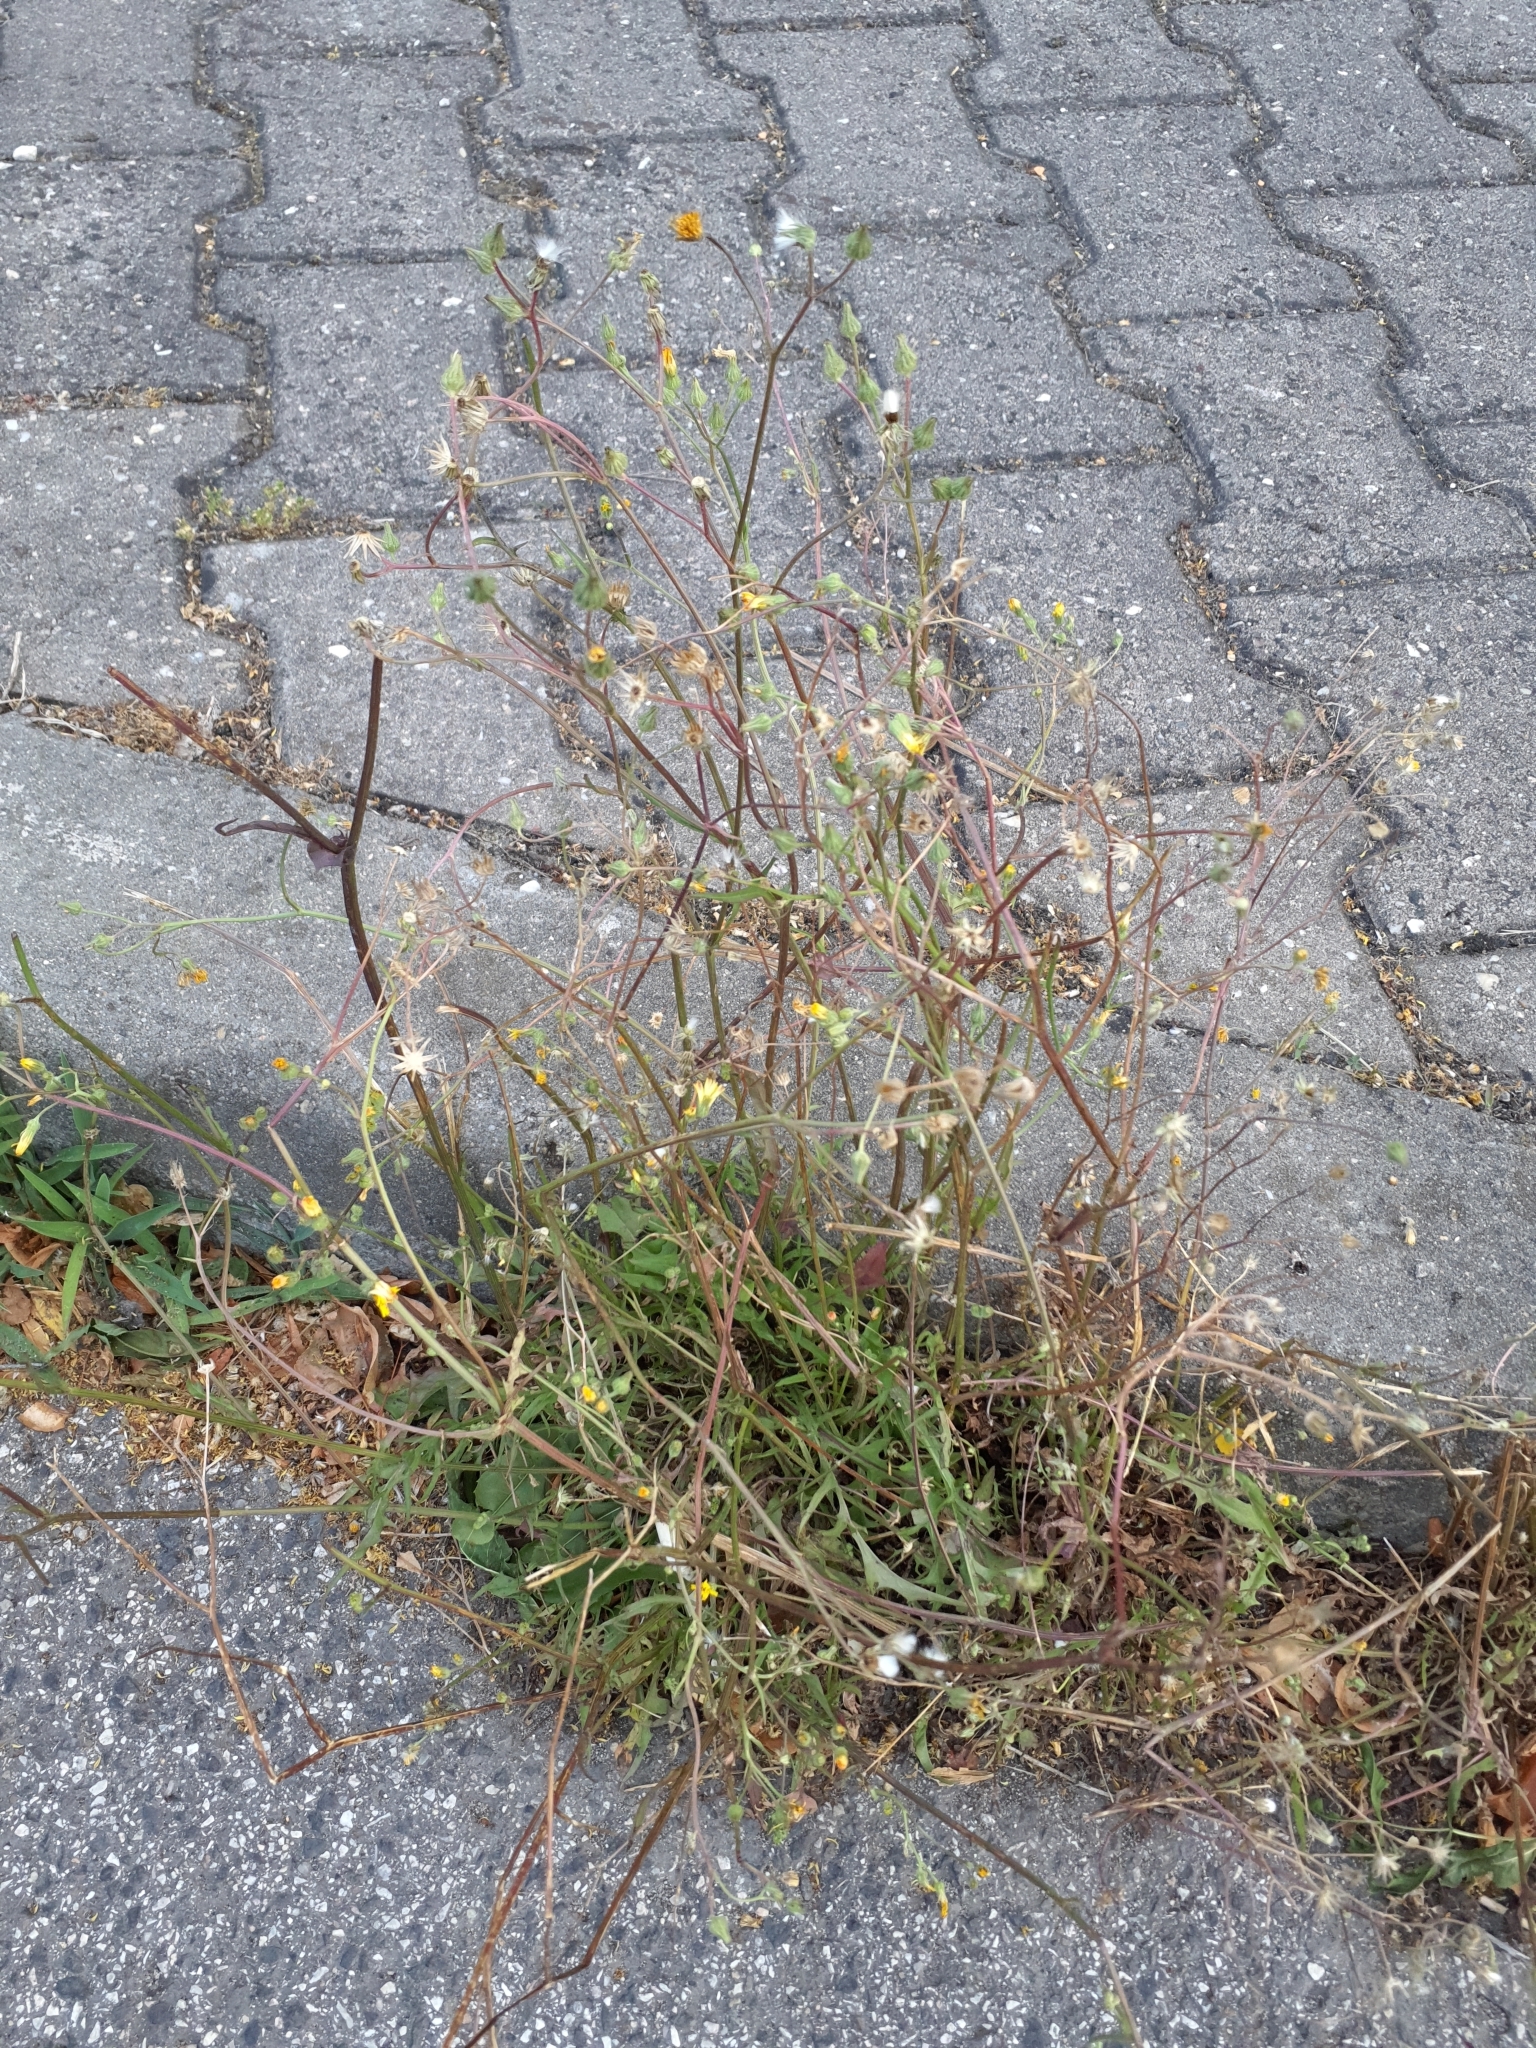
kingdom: Plantae
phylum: Tracheophyta
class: Magnoliopsida
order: Asterales
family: Asteraceae
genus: Crepis
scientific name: Crepis capillaris
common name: Smooth hawksbeard
